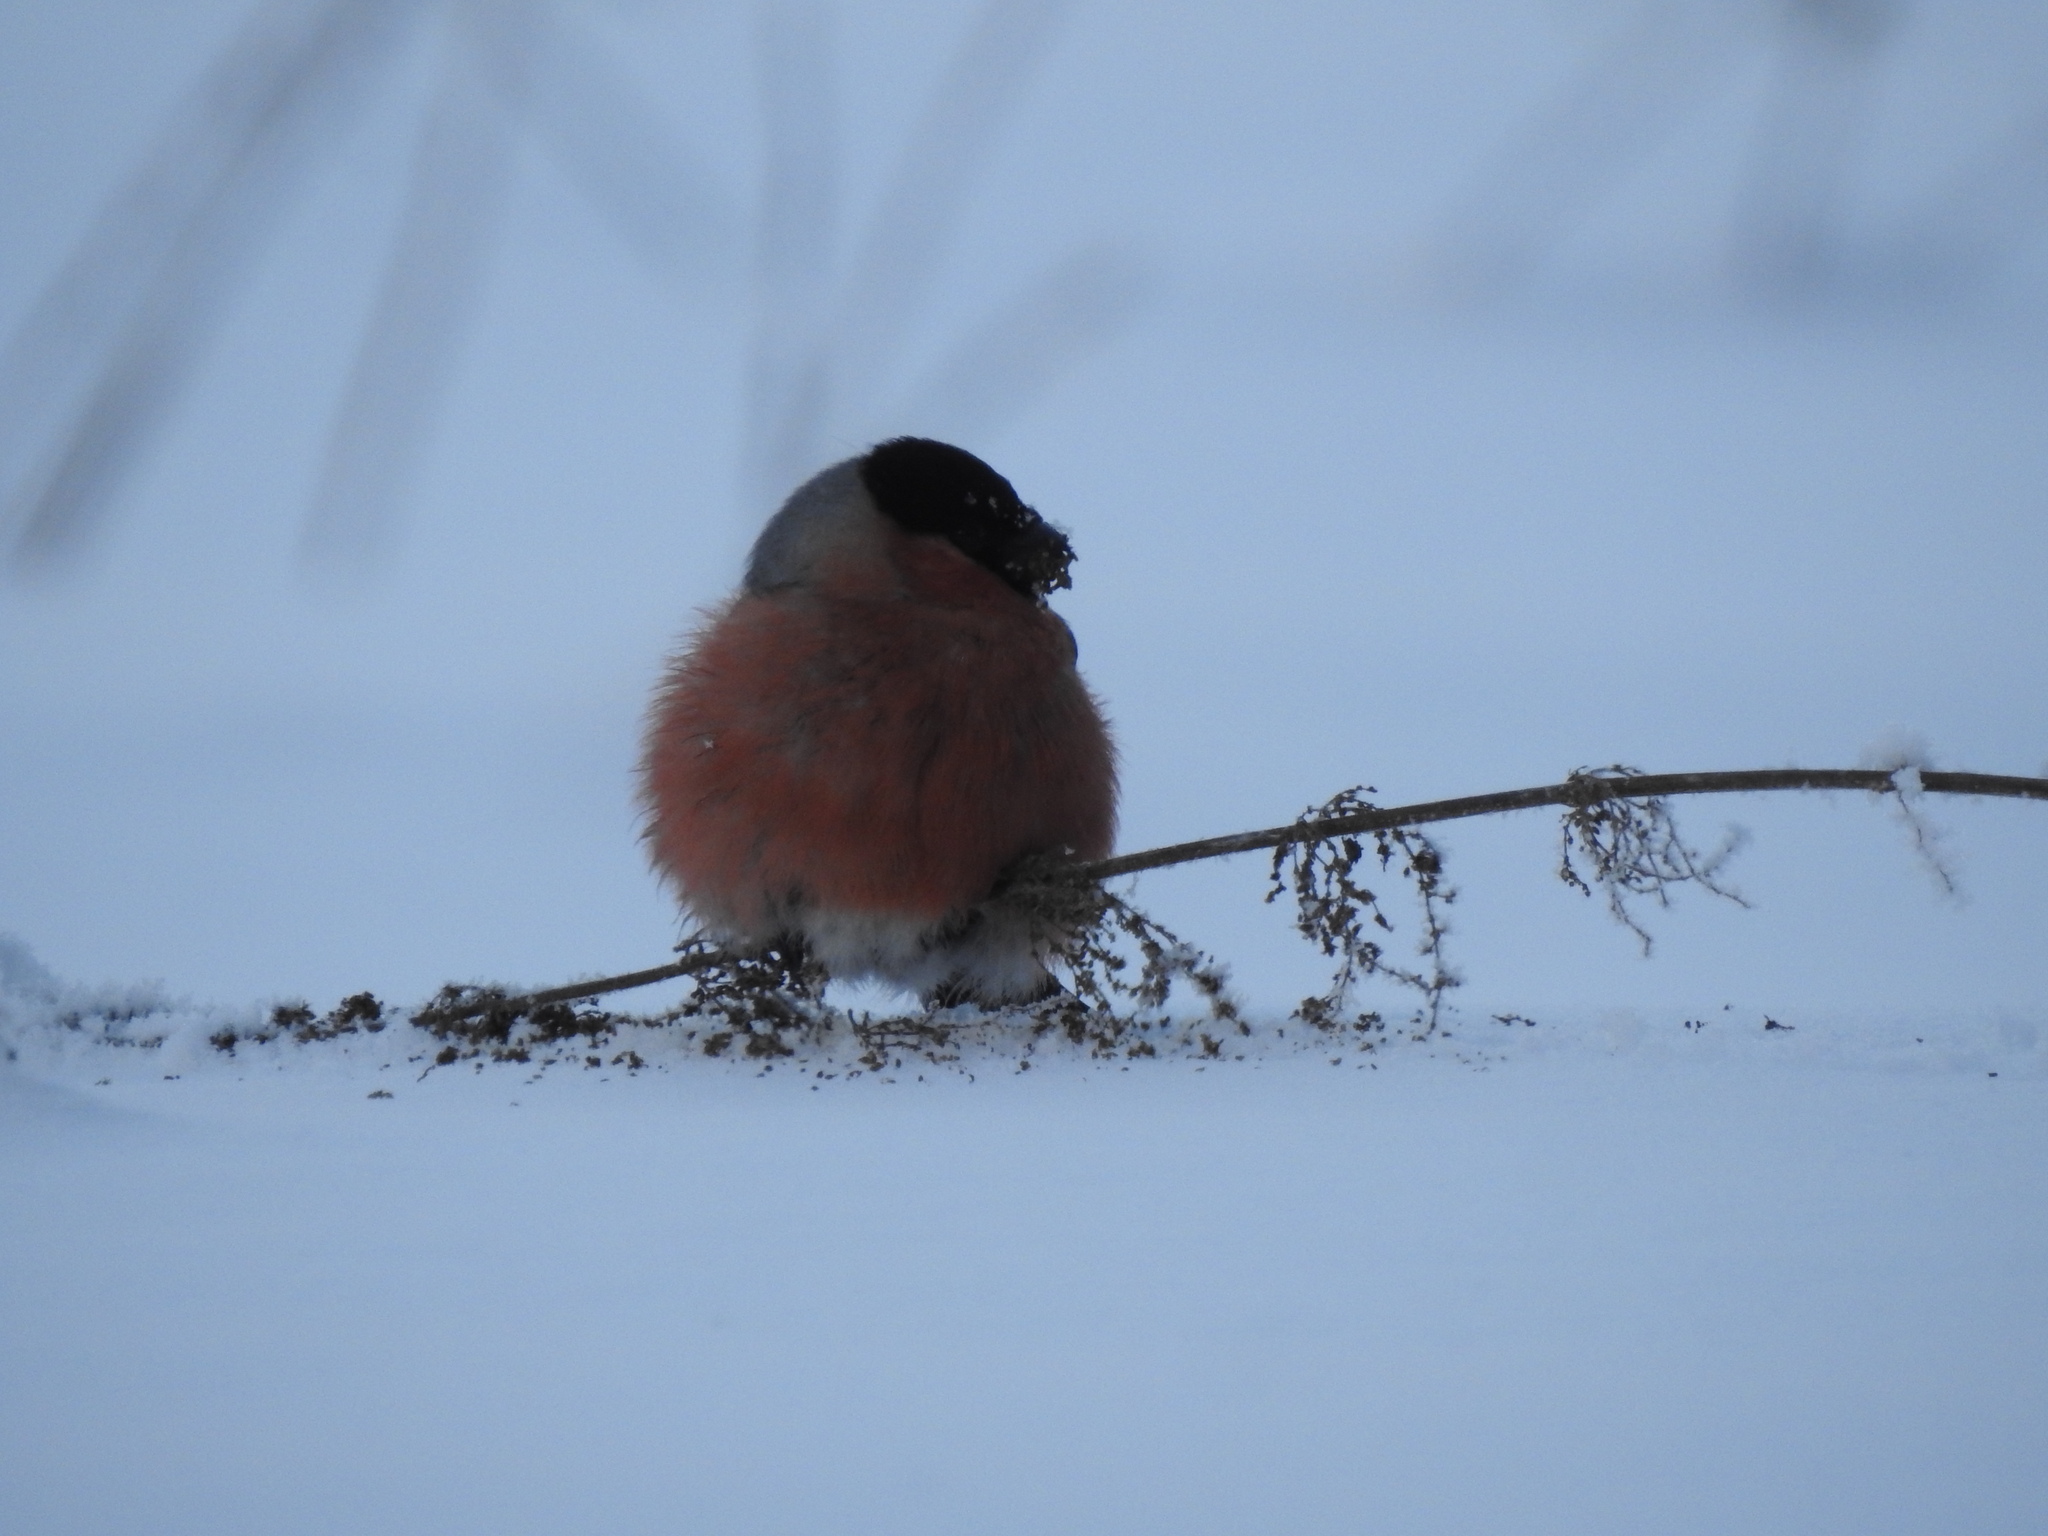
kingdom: Animalia
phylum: Chordata
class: Aves
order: Passeriformes
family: Fringillidae
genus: Pyrrhula
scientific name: Pyrrhula pyrrhula
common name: Eurasian bullfinch
